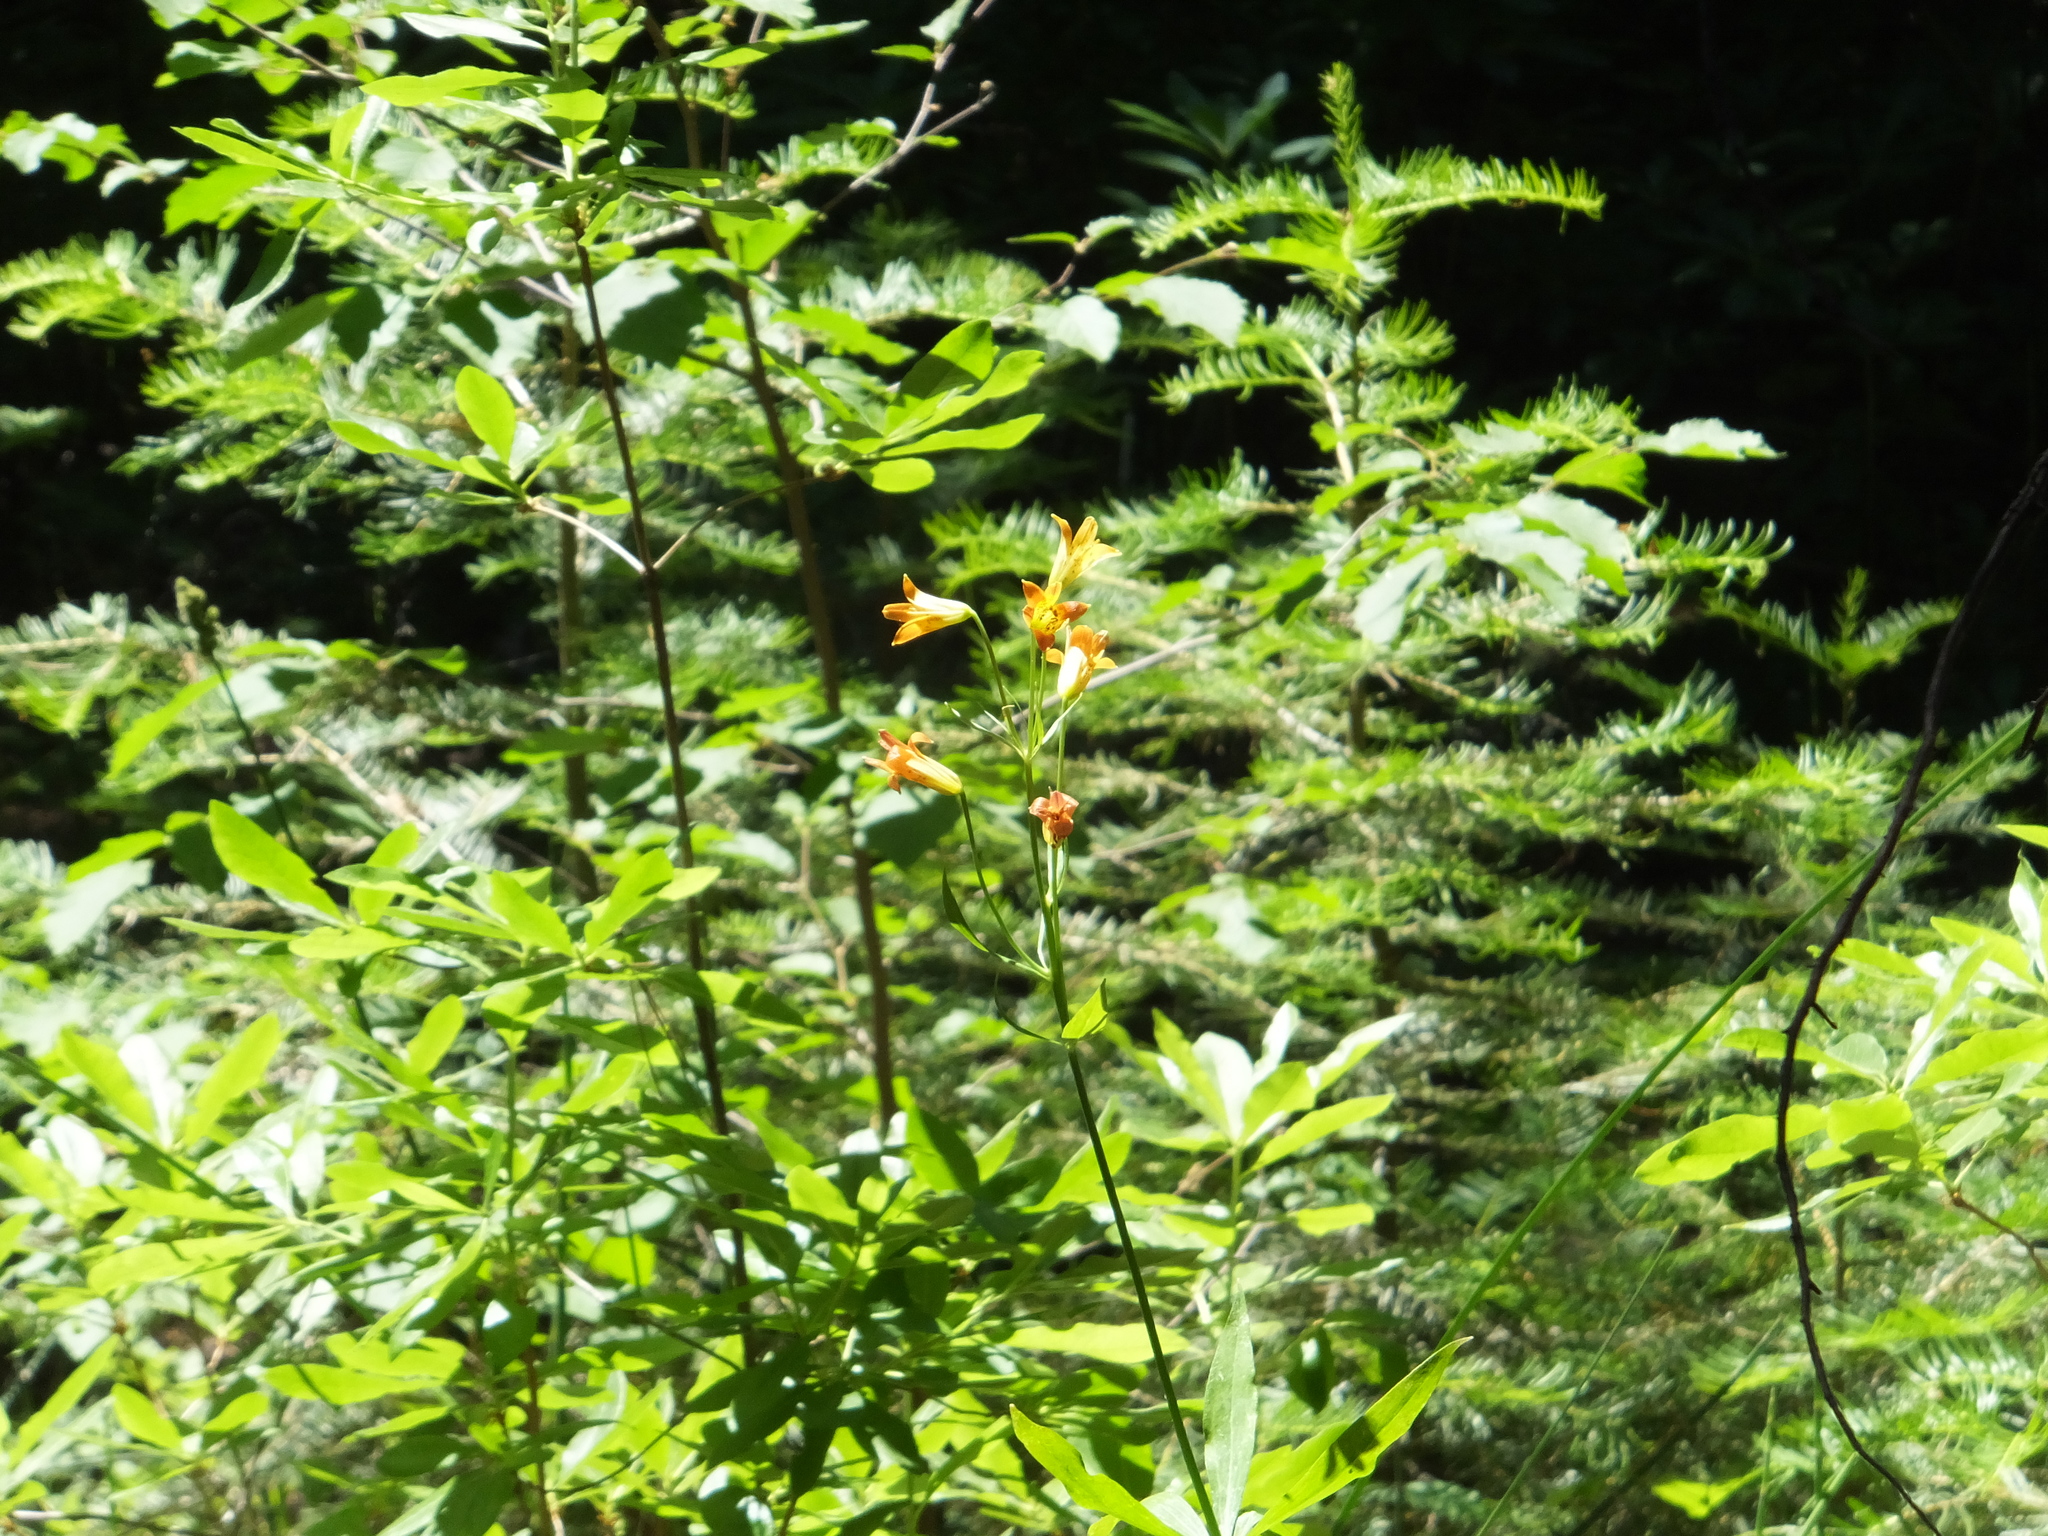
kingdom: Plantae
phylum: Tracheophyta
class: Liliopsida
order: Liliales
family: Liliaceae
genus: Lilium
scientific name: Lilium parvum
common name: Alpine lily
